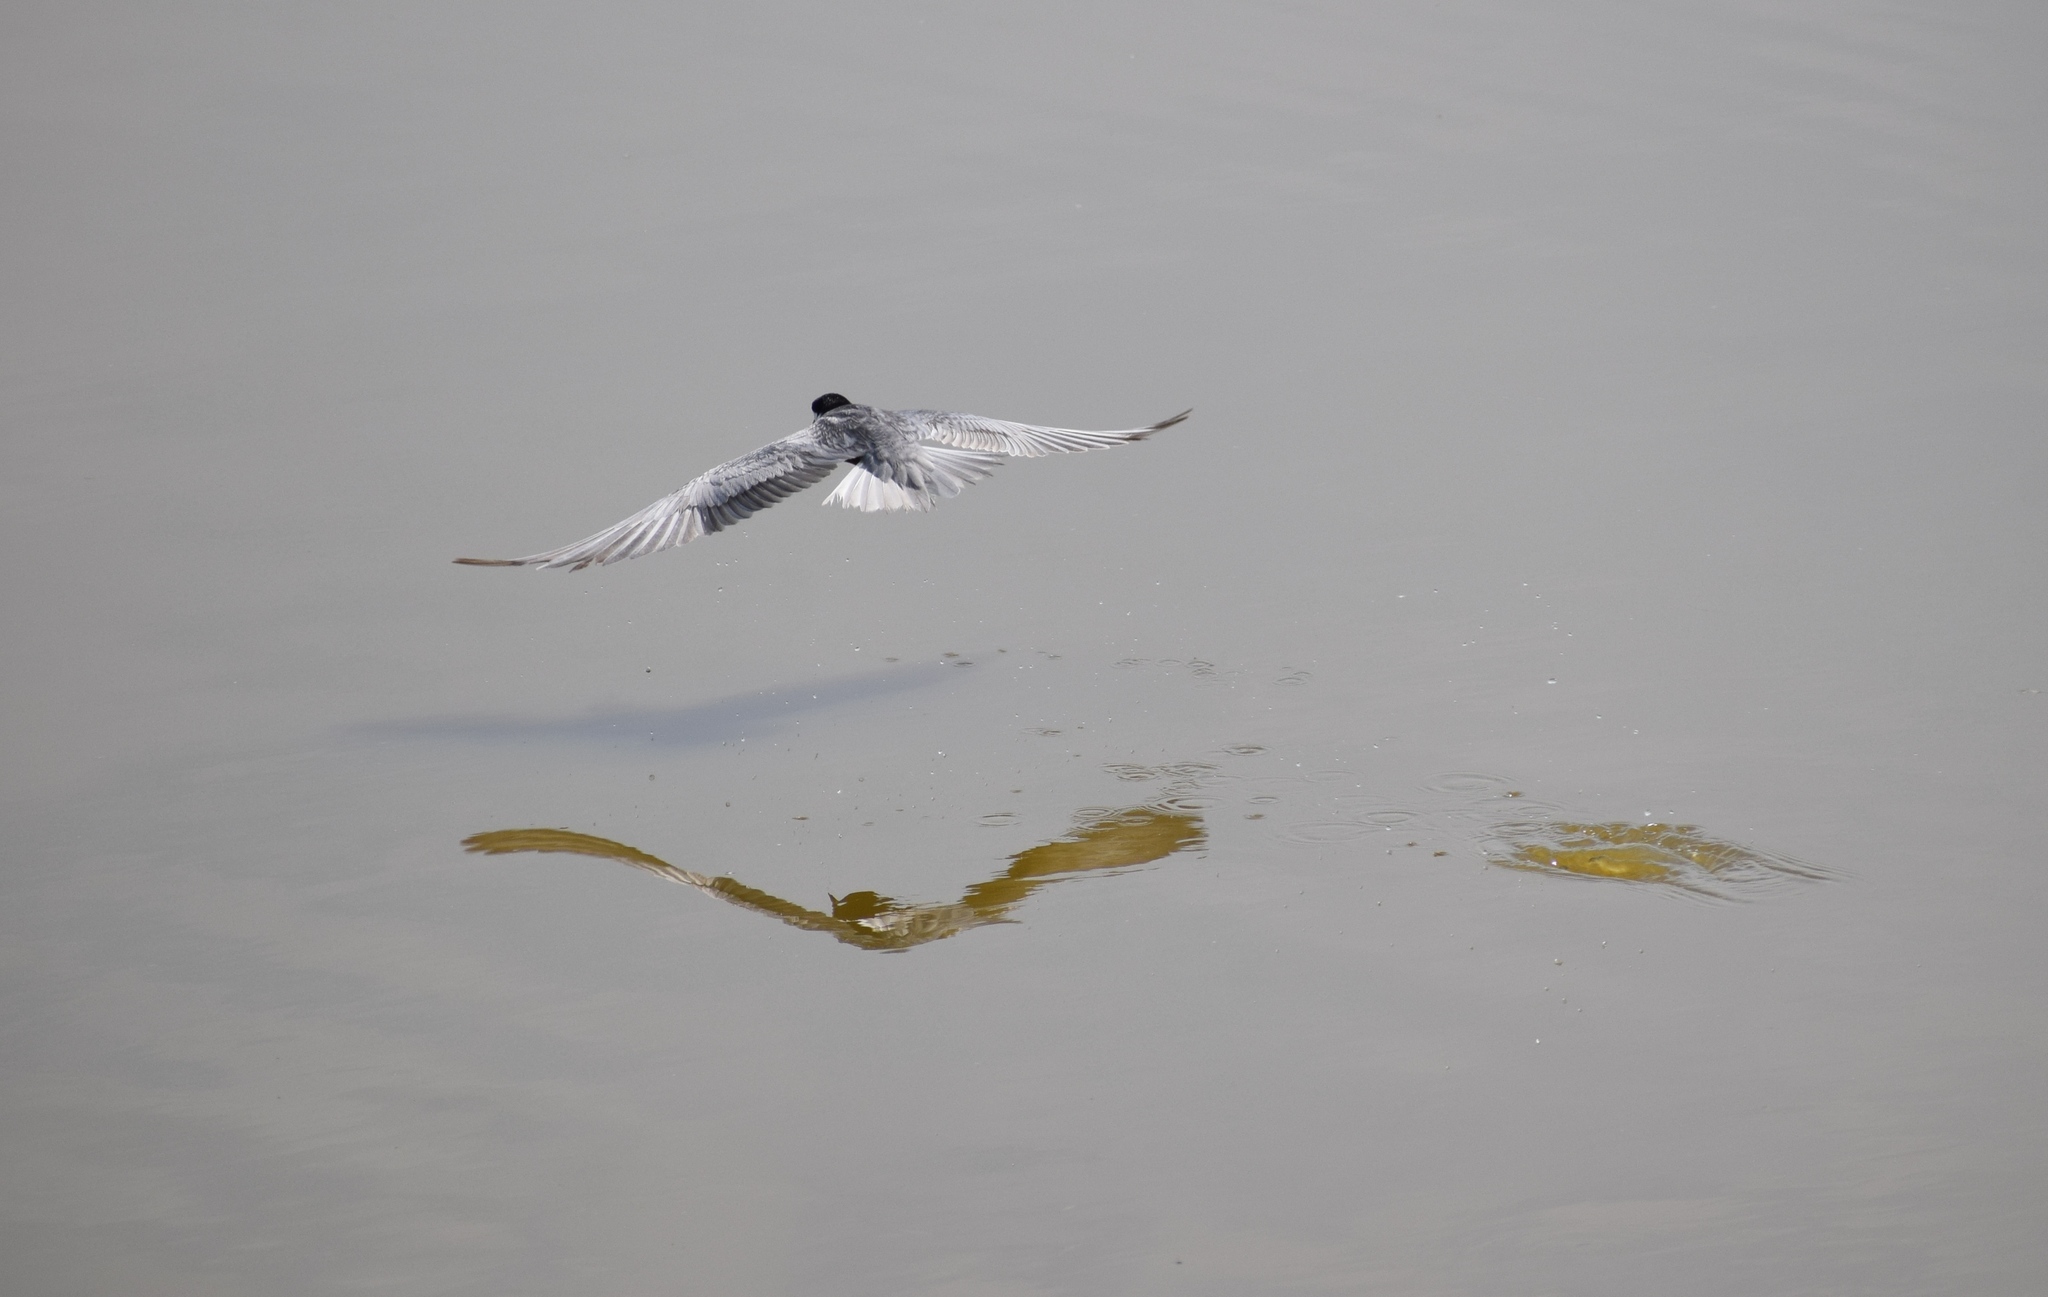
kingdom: Animalia
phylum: Chordata
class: Aves
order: Charadriiformes
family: Laridae
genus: Chlidonias
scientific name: Chlidonias hybrida
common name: Whiskered tern
